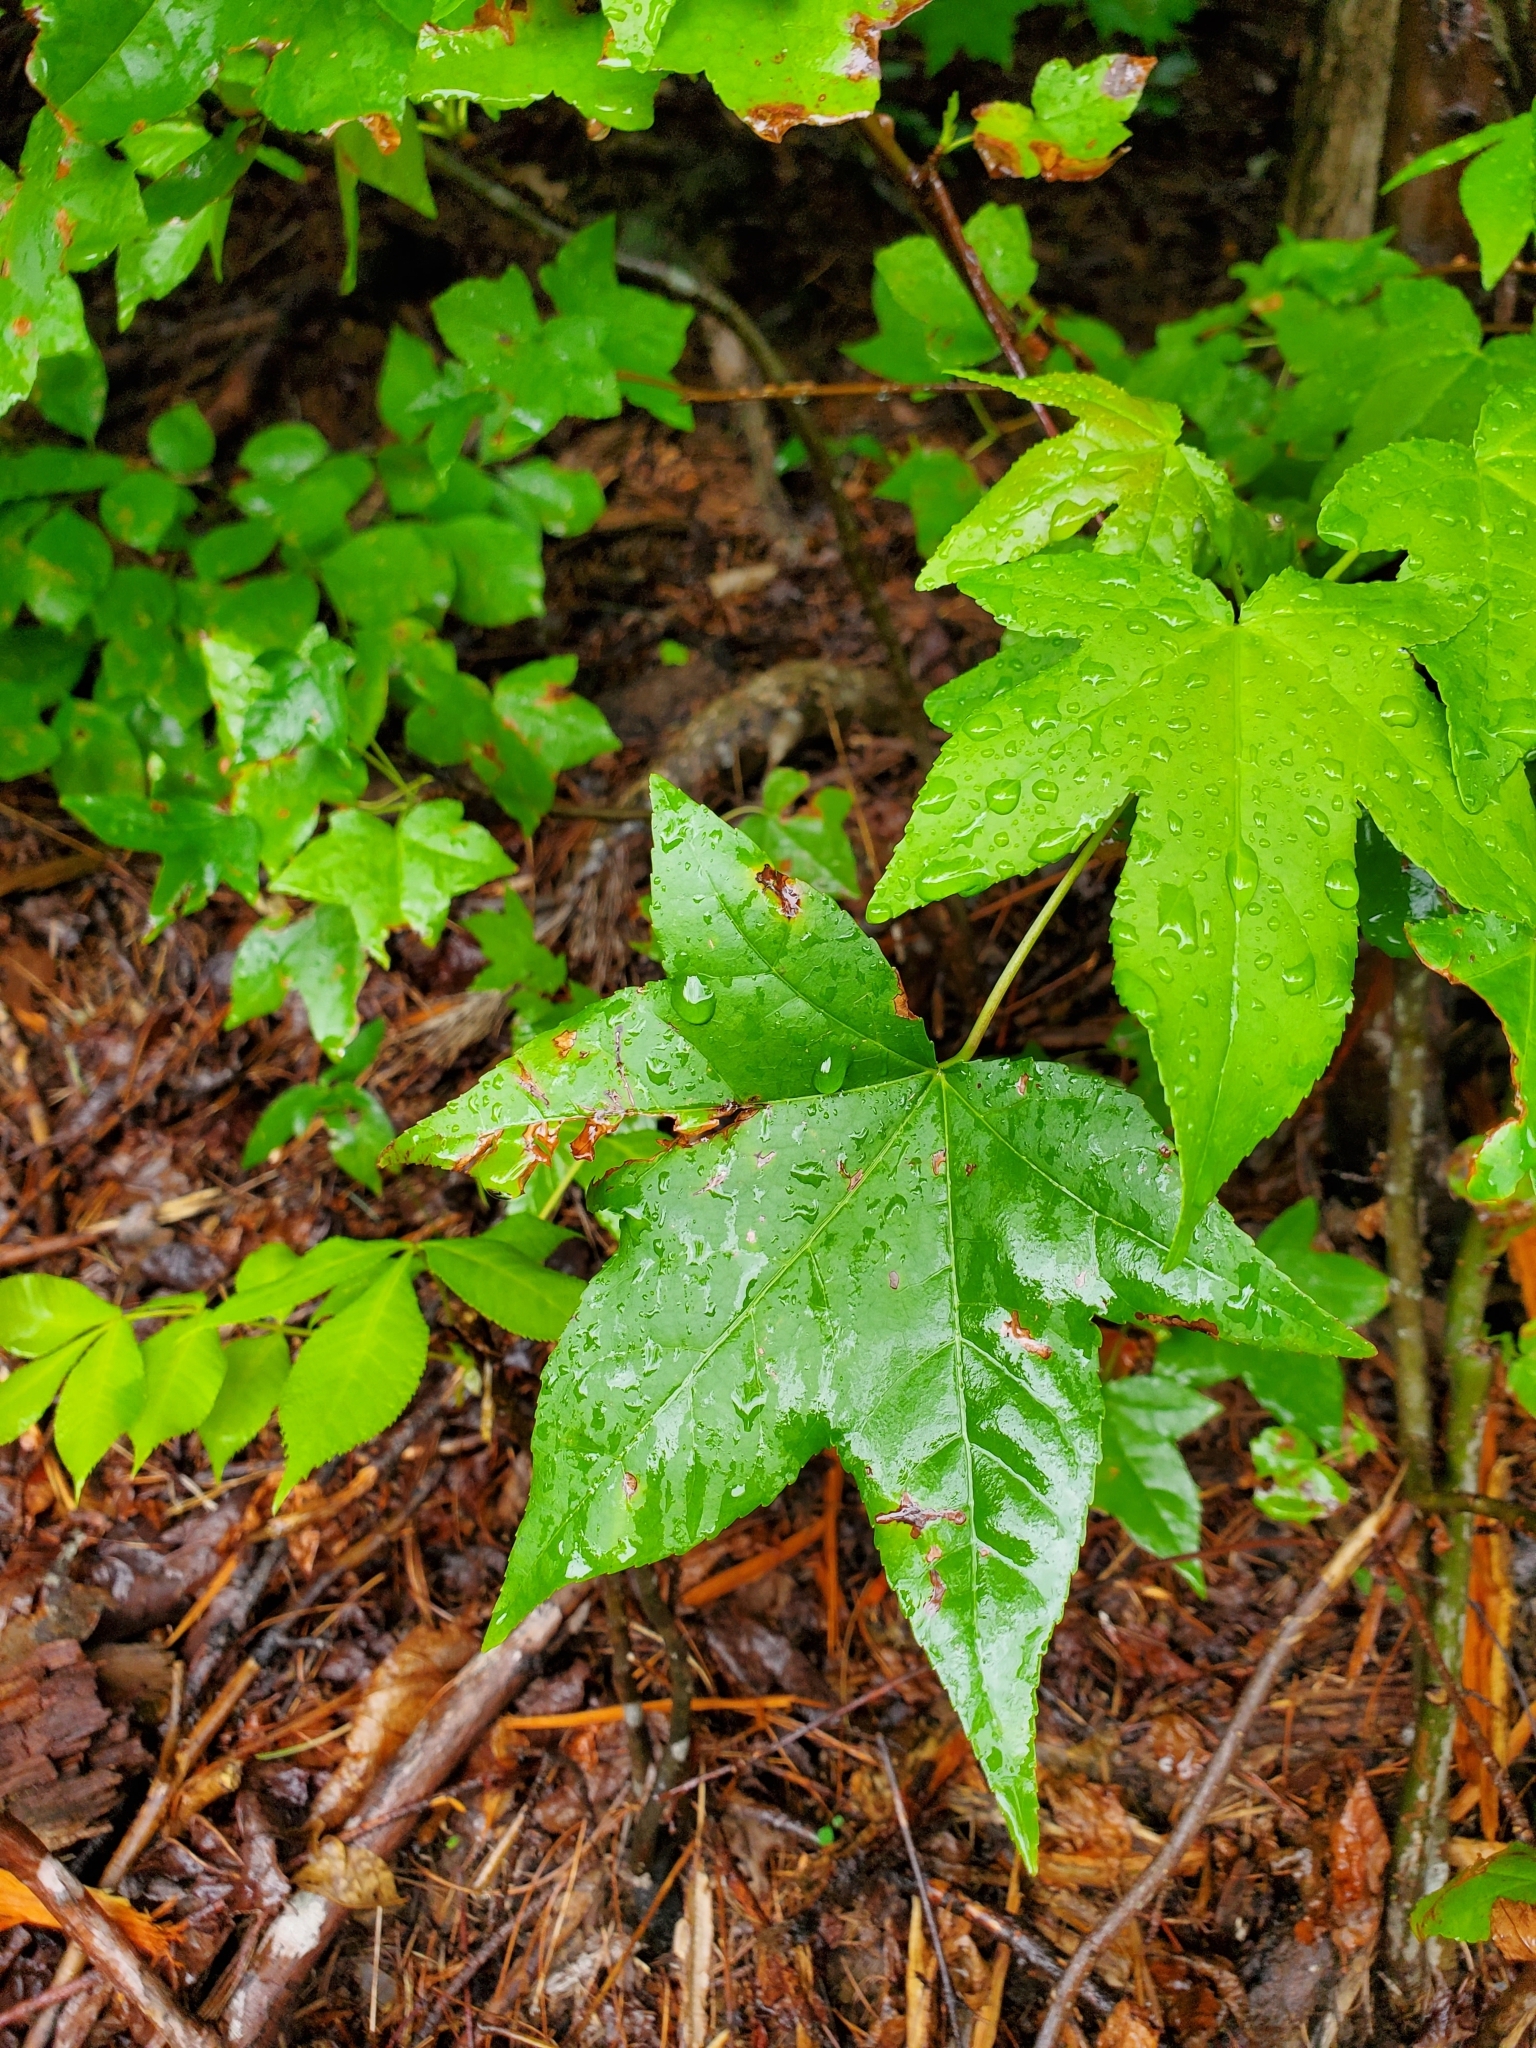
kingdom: Plantae
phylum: Tracheophyta
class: Magnoliopsida
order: Saxifragales
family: Altingiaceae
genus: Liquidambar
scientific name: Liquidambar styraciflua
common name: Sweet gum
